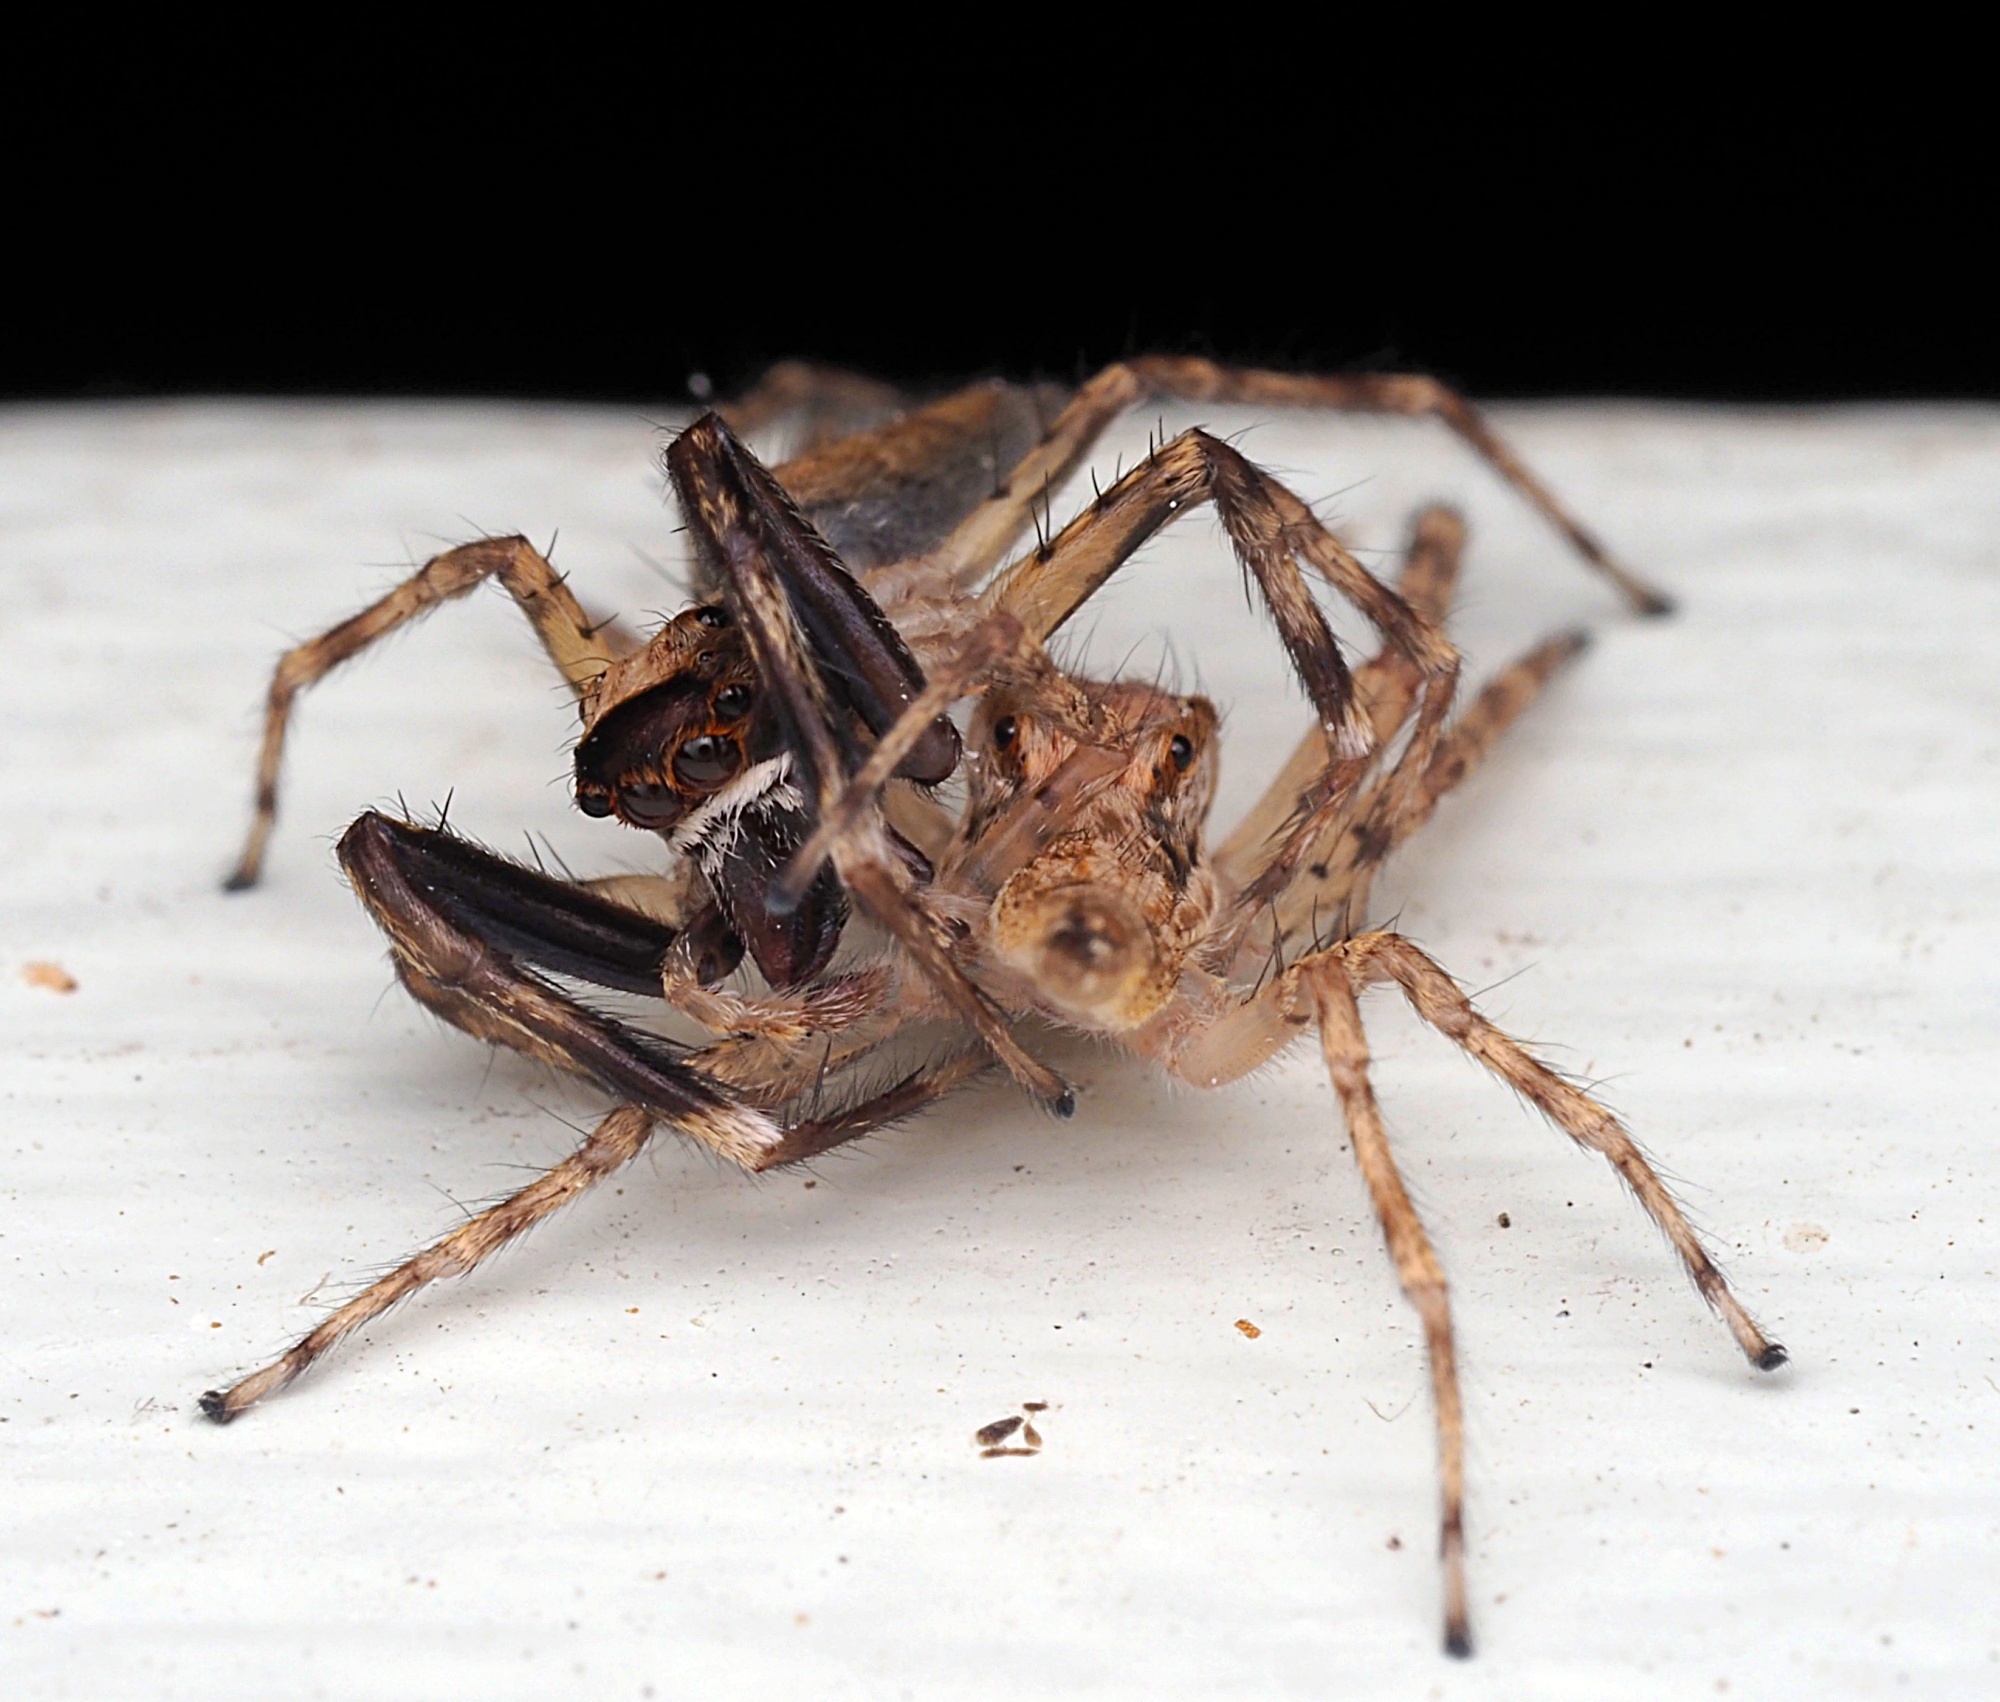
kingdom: Animalia
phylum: Arthropoda
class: Arachnida
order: Araneae
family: Salticidae
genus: Helpis
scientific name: Helpis minitabunda
